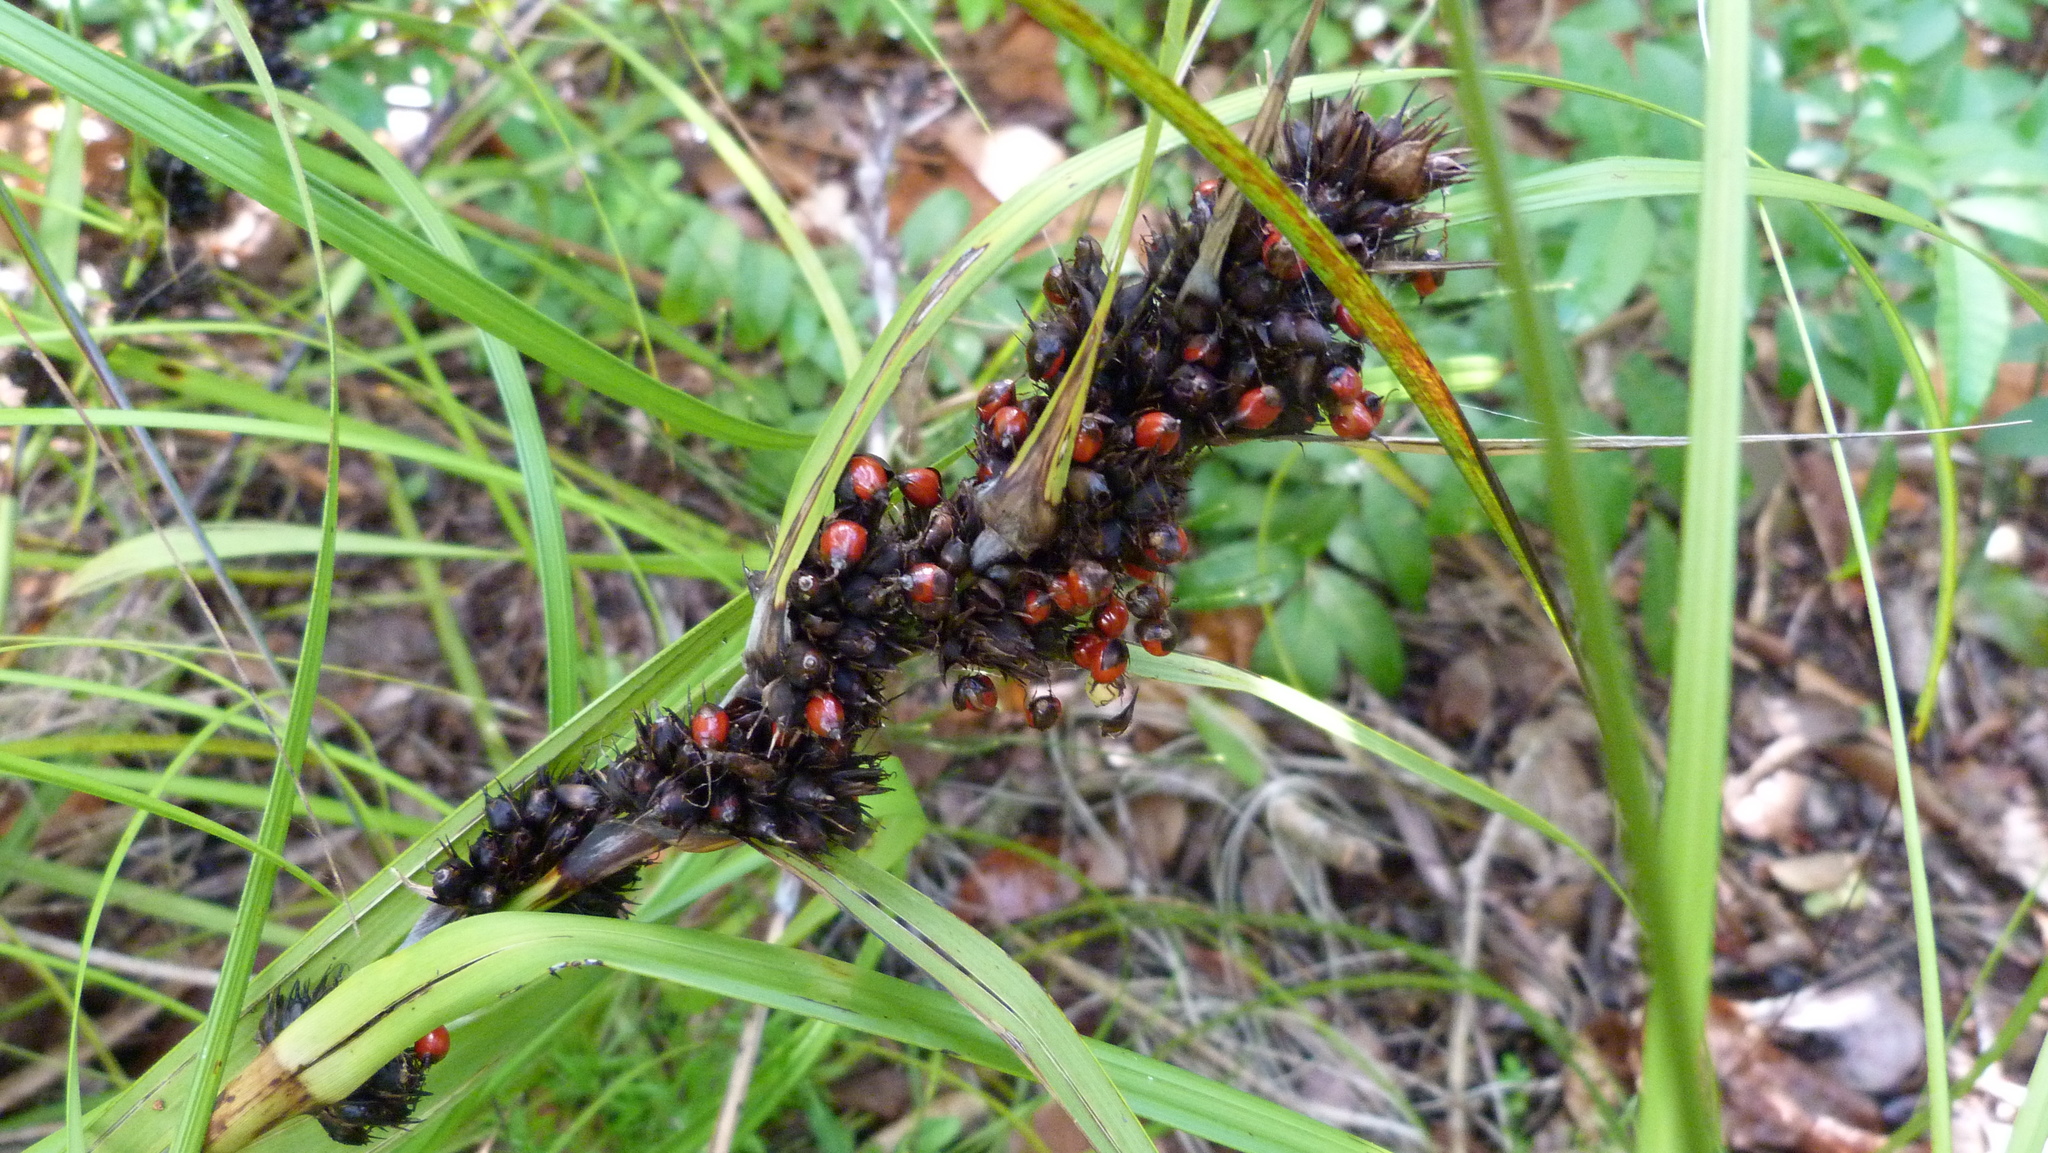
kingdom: Plantae
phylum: Tracheophyta
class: Liliopsida
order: Poales
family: Cyperaceae
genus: Gahnia
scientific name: Gahnia aspera
